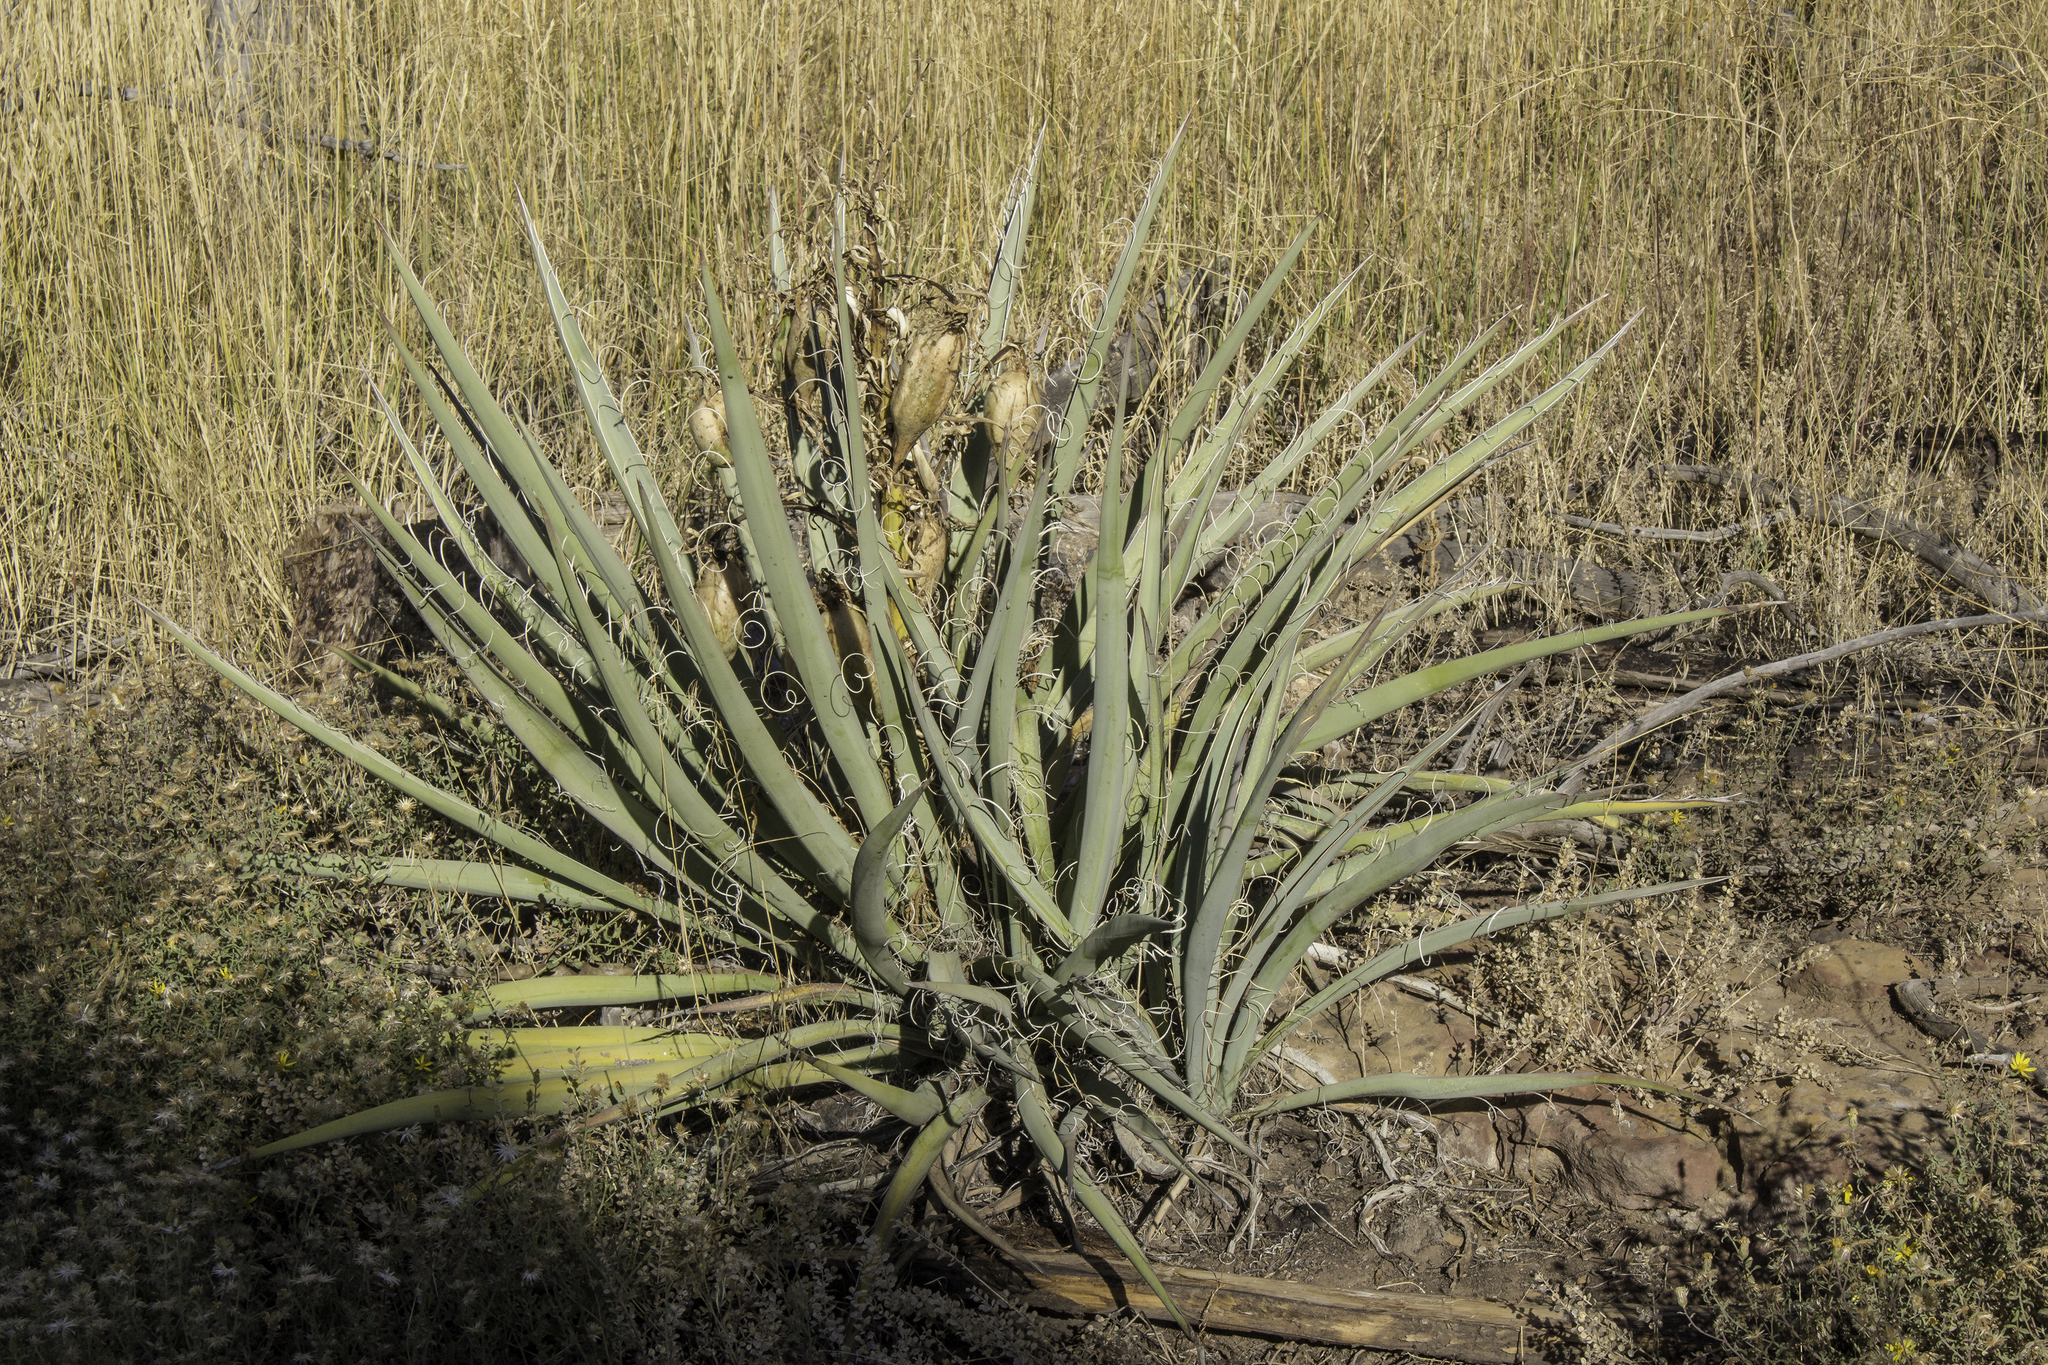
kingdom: Plantae
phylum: Tracheophyta
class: Liliopsida
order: Asparagales
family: Asparagaceae
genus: Yucca
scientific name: Yucca baccata
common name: Banana yucca
